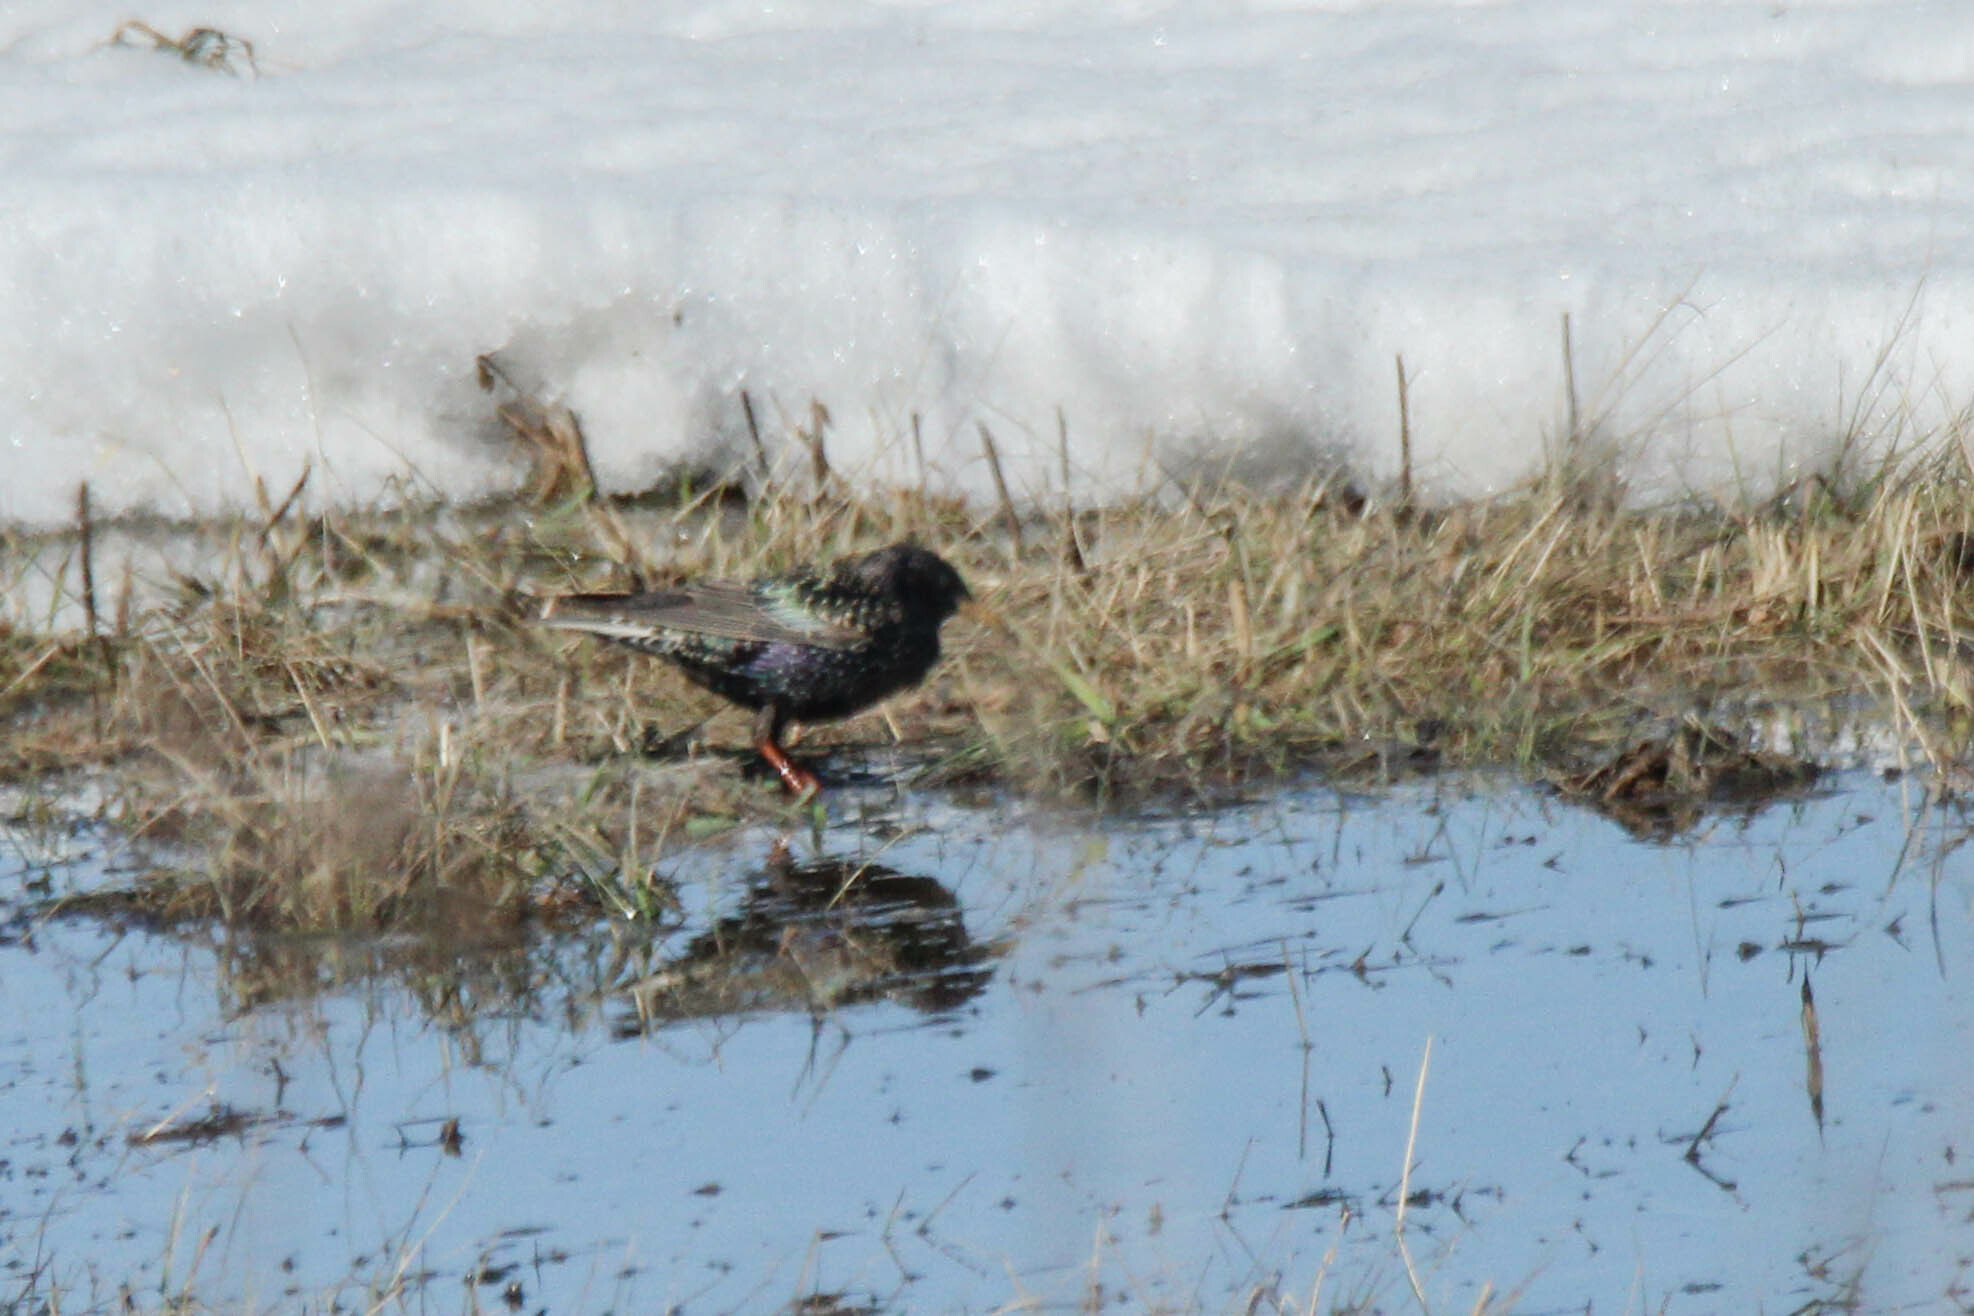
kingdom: Animalia
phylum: Chordata
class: Aves
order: Passeriformes
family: Sturnidae
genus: Sturnus
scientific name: Sturnus vulgaris
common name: Common starling
